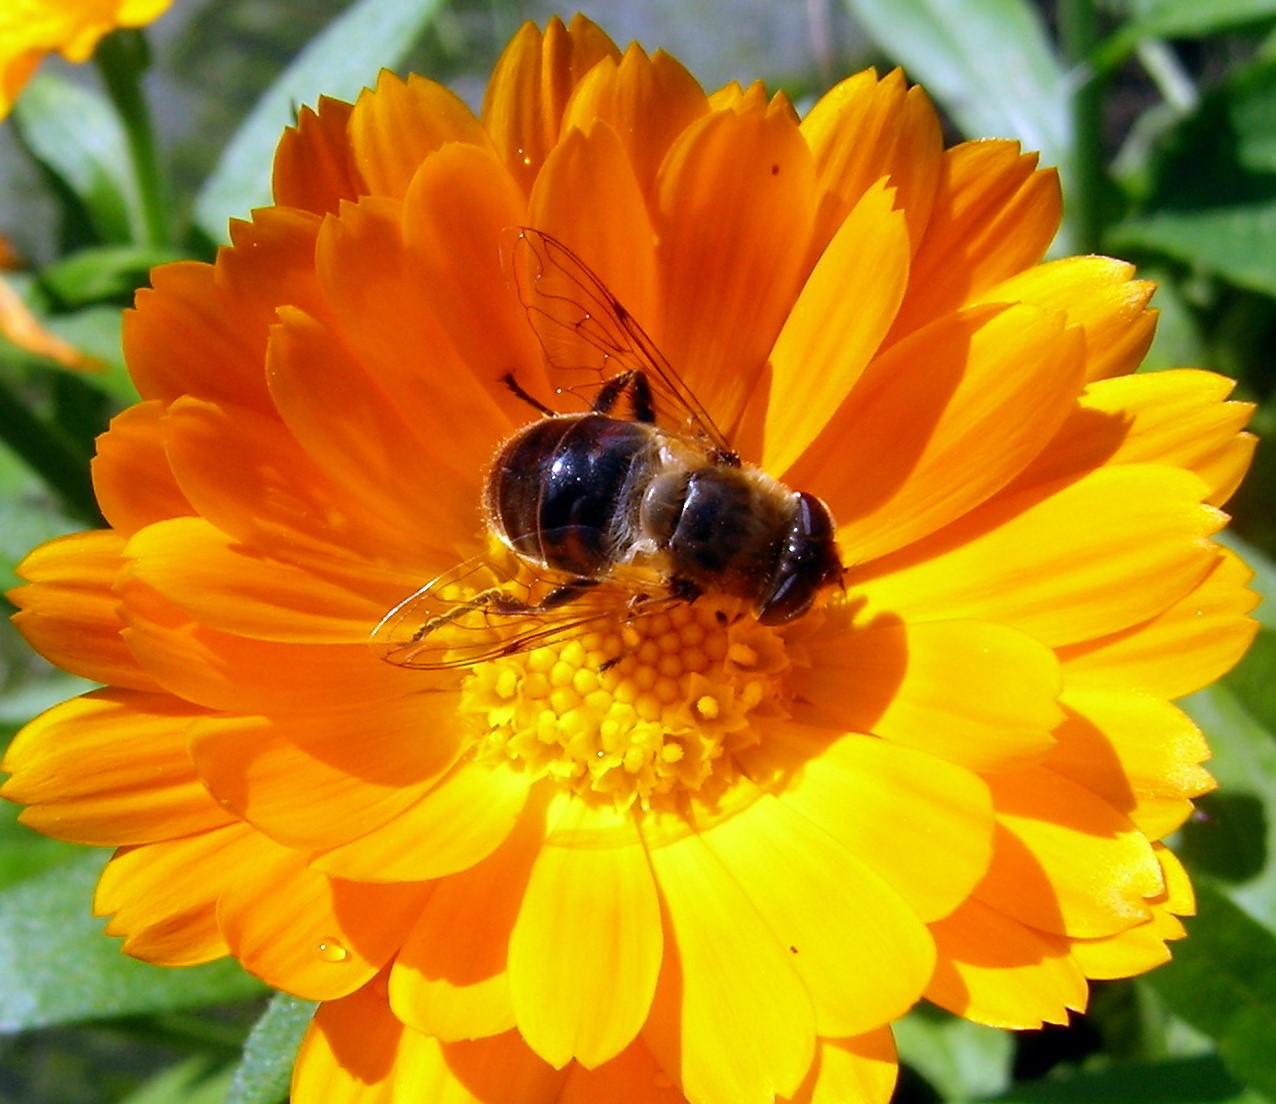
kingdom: Animalia
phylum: Arthropoda
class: Insecta
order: Diptera
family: Syrphidae
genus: Eristalis
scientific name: Eristalis tenax
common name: Drone fly
